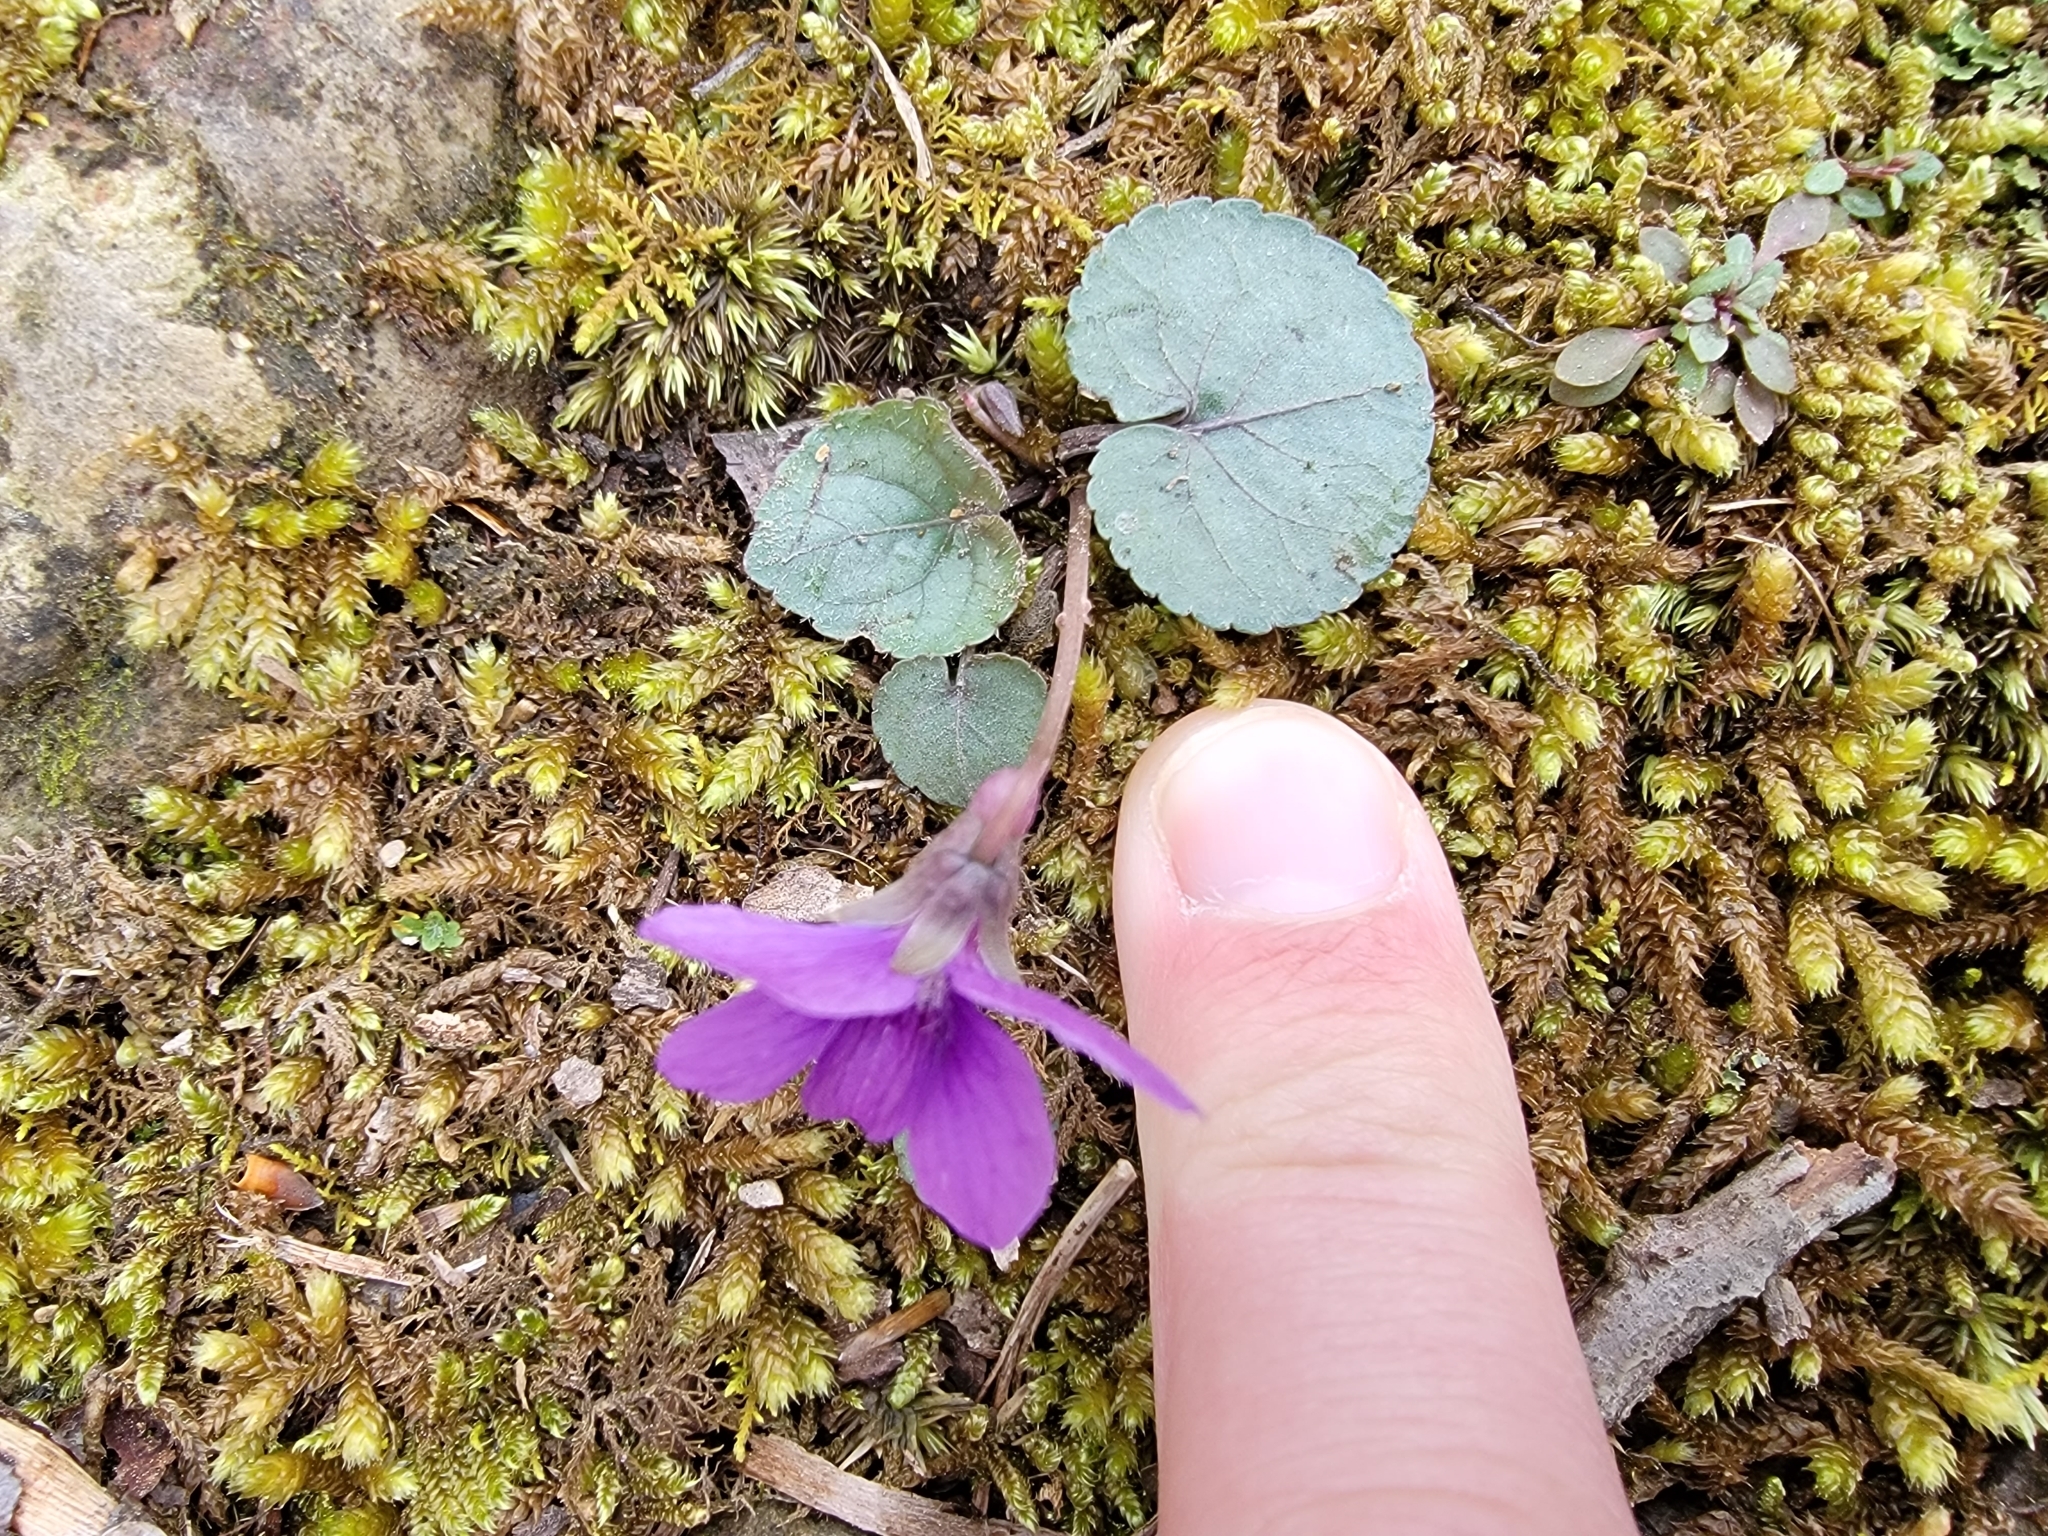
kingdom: Plantae
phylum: Tracheophyta
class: Magnoliopsida
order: Malpighiales
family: Violaceae
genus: Viola
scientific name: Viola hirsutula
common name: Southern wood violet
